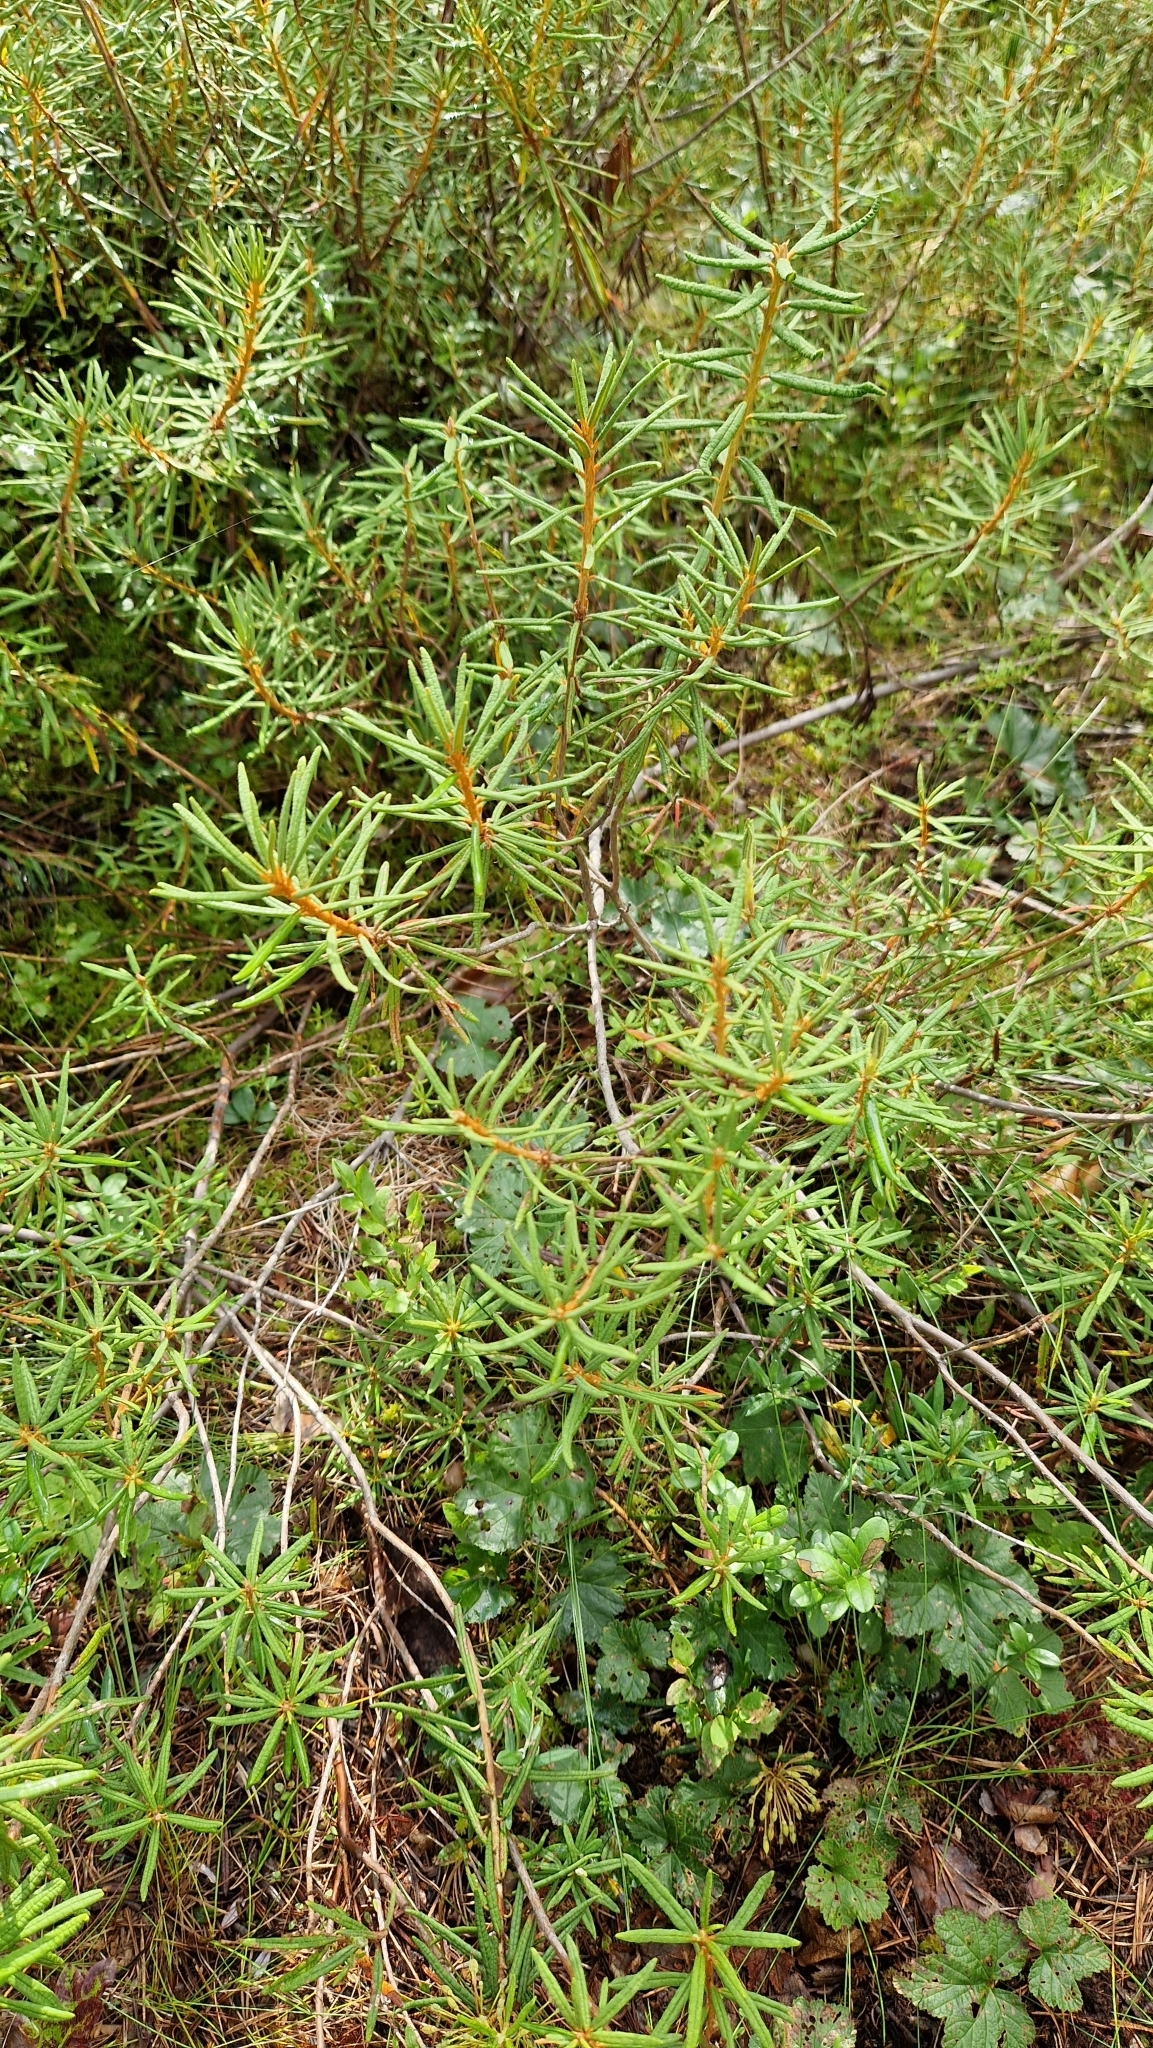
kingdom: Plantae
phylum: Tracheophyta
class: Magnoliopsida
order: Ericales
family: Ericaceae
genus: Rhododendron
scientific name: Rhododendron tomentosum
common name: Marsh labrador tea
